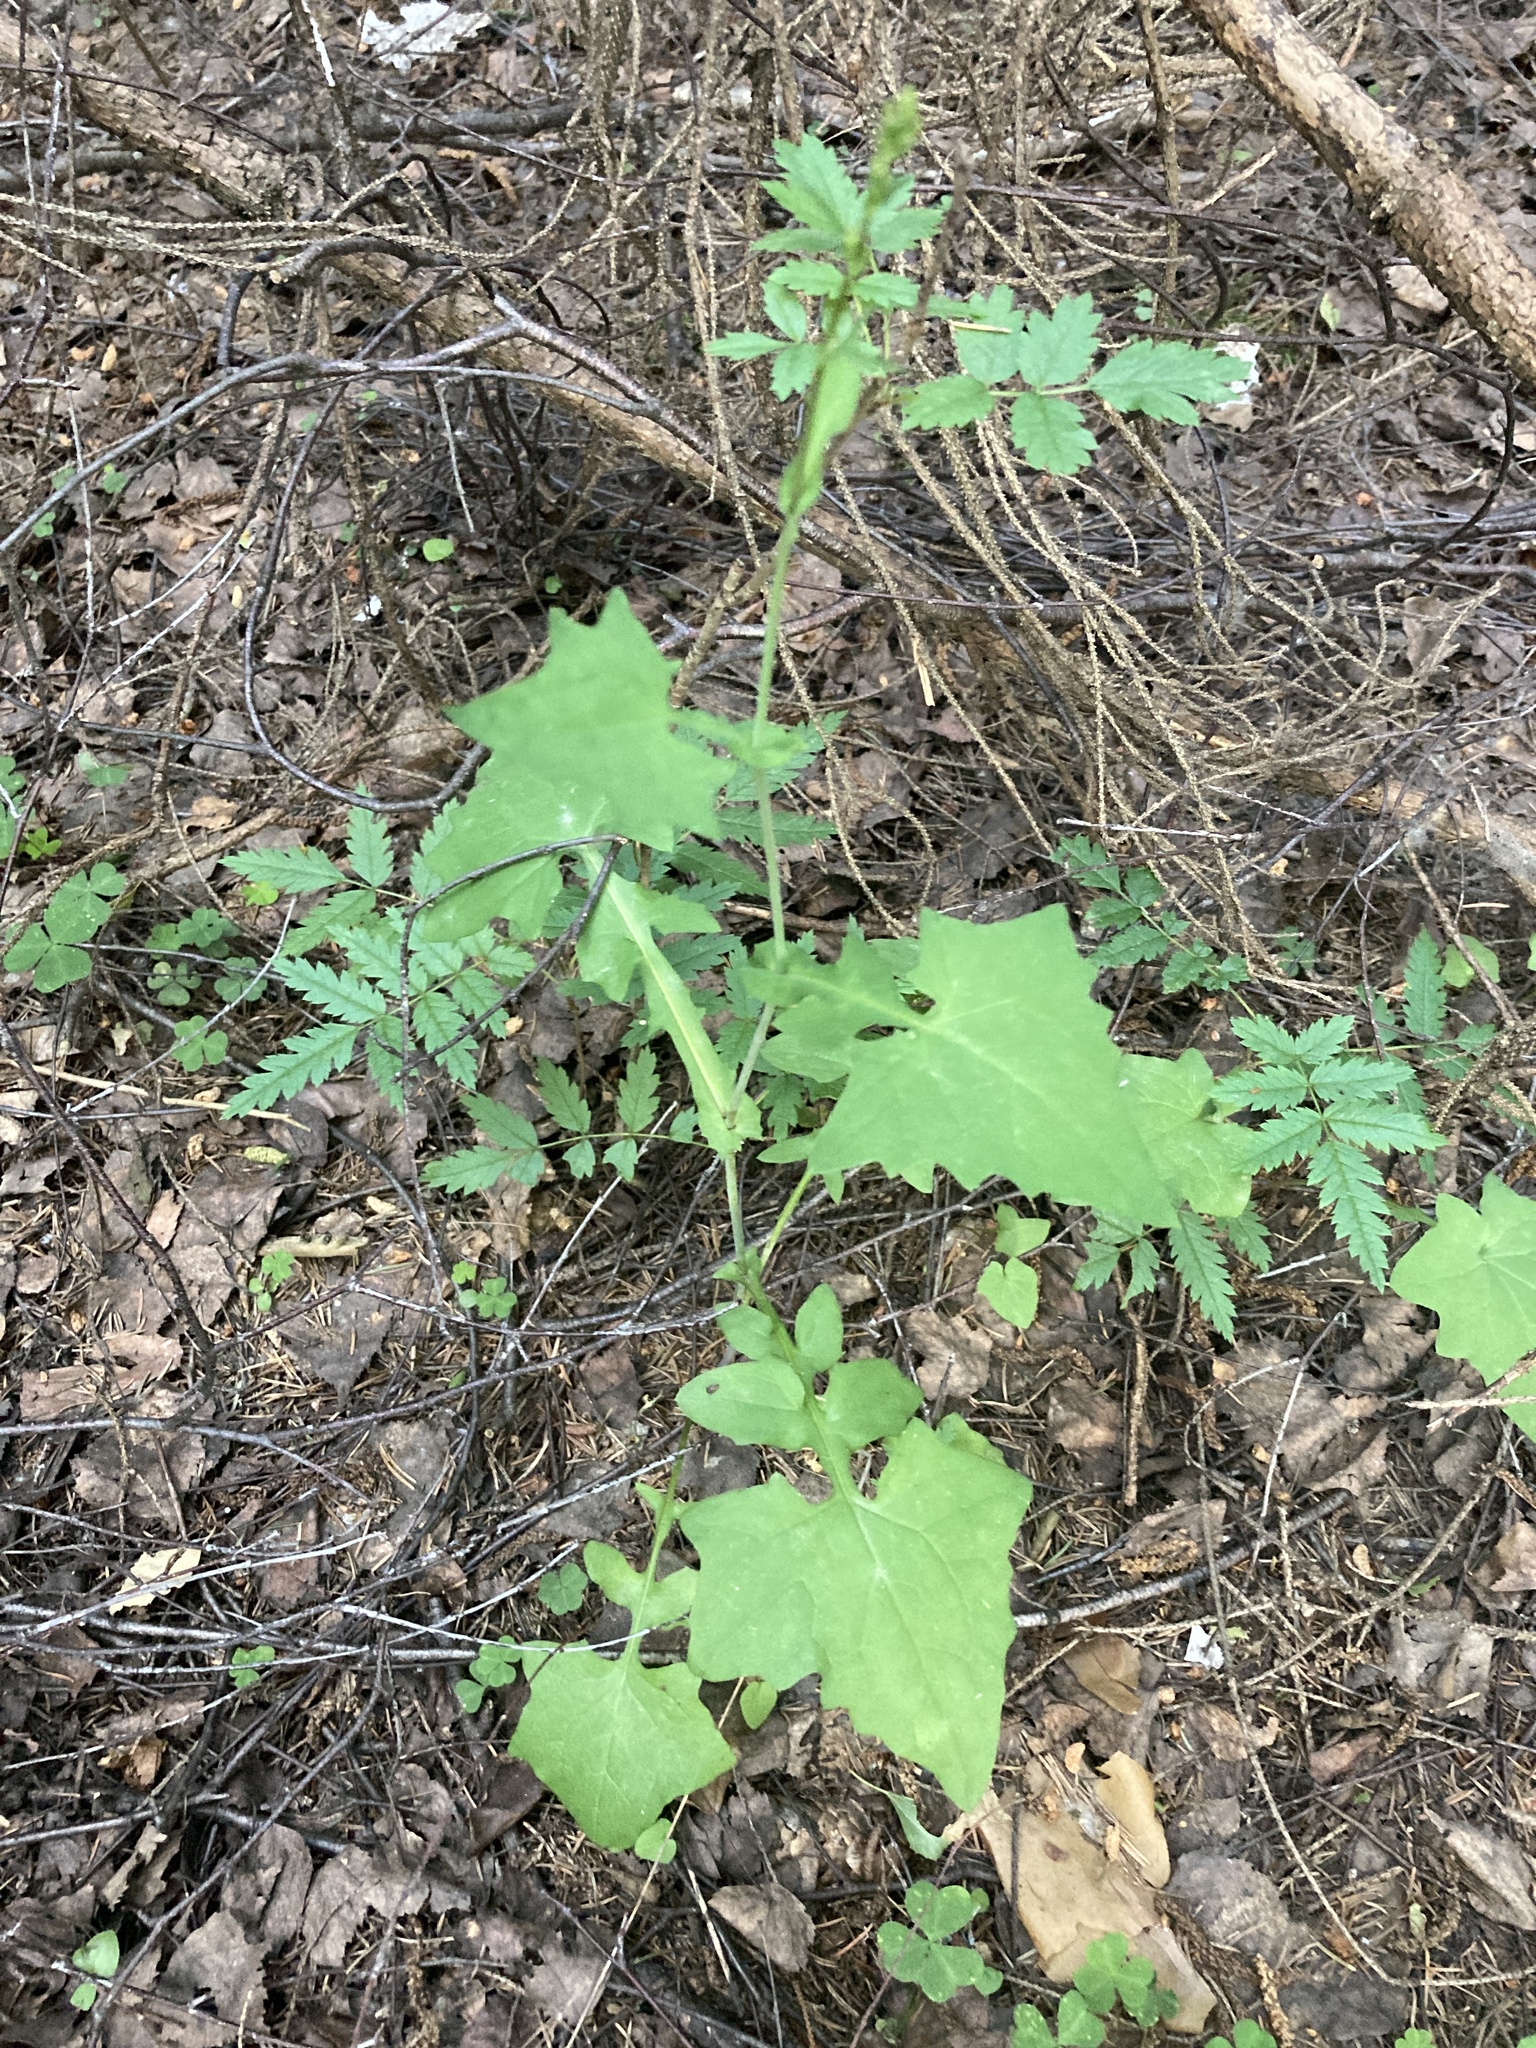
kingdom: Plantae
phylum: Tracheophyta
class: Magnoliopsida
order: Asterales
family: Asteraceae
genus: Mycelis
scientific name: Mycelis muralis
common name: Wall lettuce
